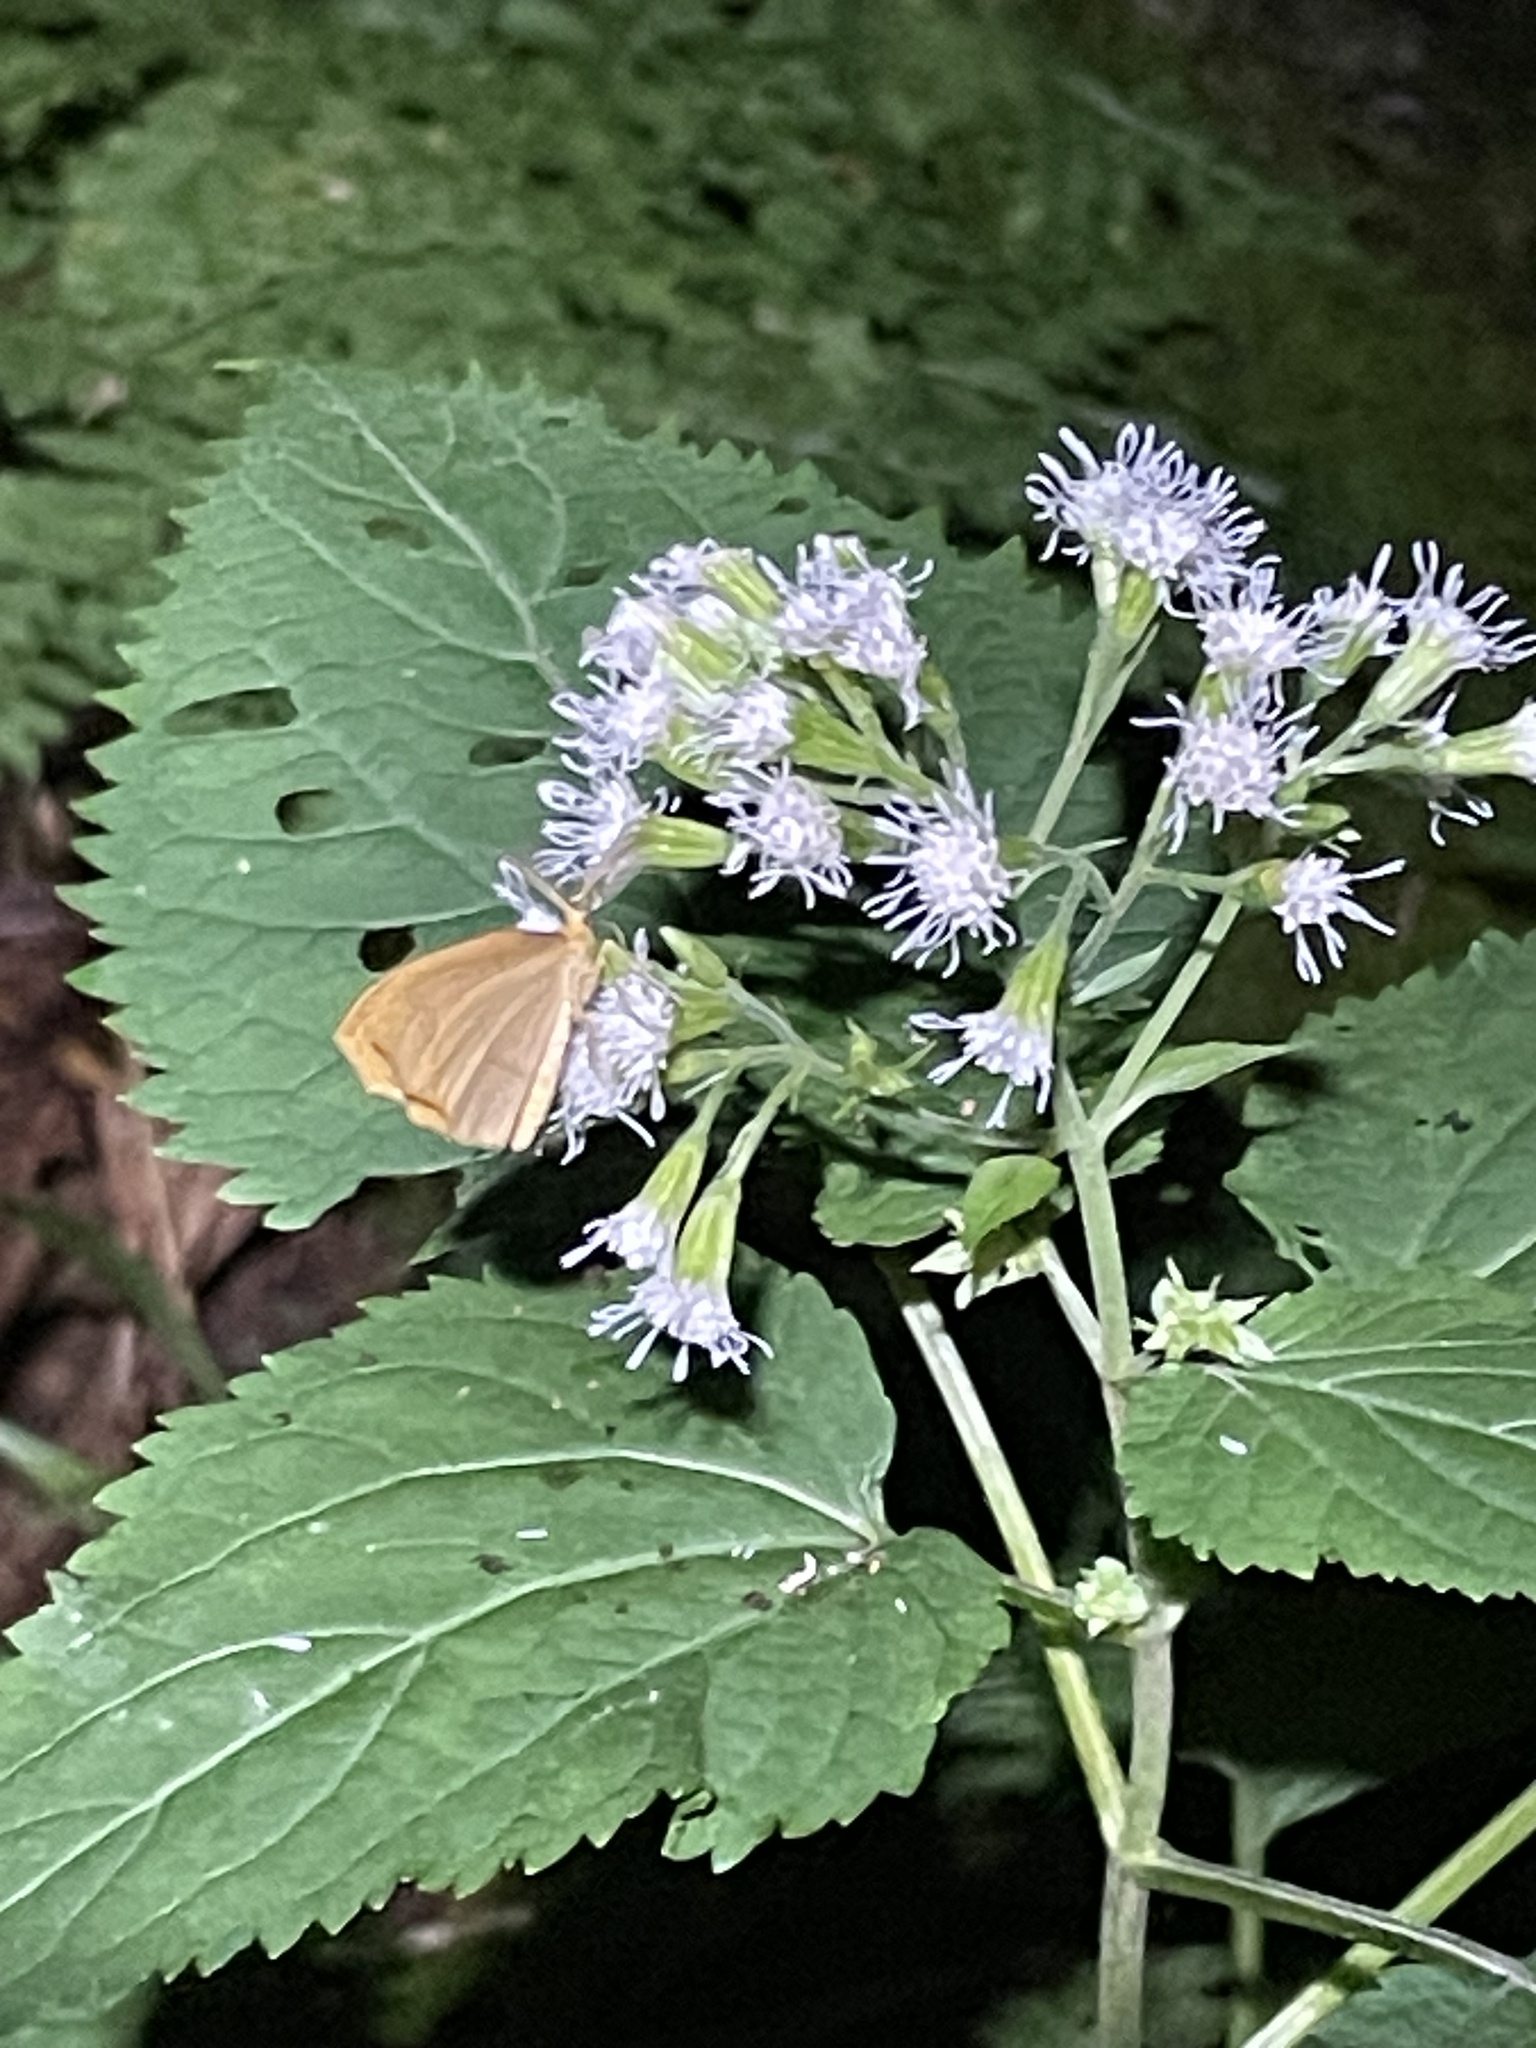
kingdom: Plantae
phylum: Tracheophyta
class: Magnoliopsida
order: Asterales
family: Asteraceae
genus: Ageratina
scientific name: Ageratina altissima
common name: White snakeroot
